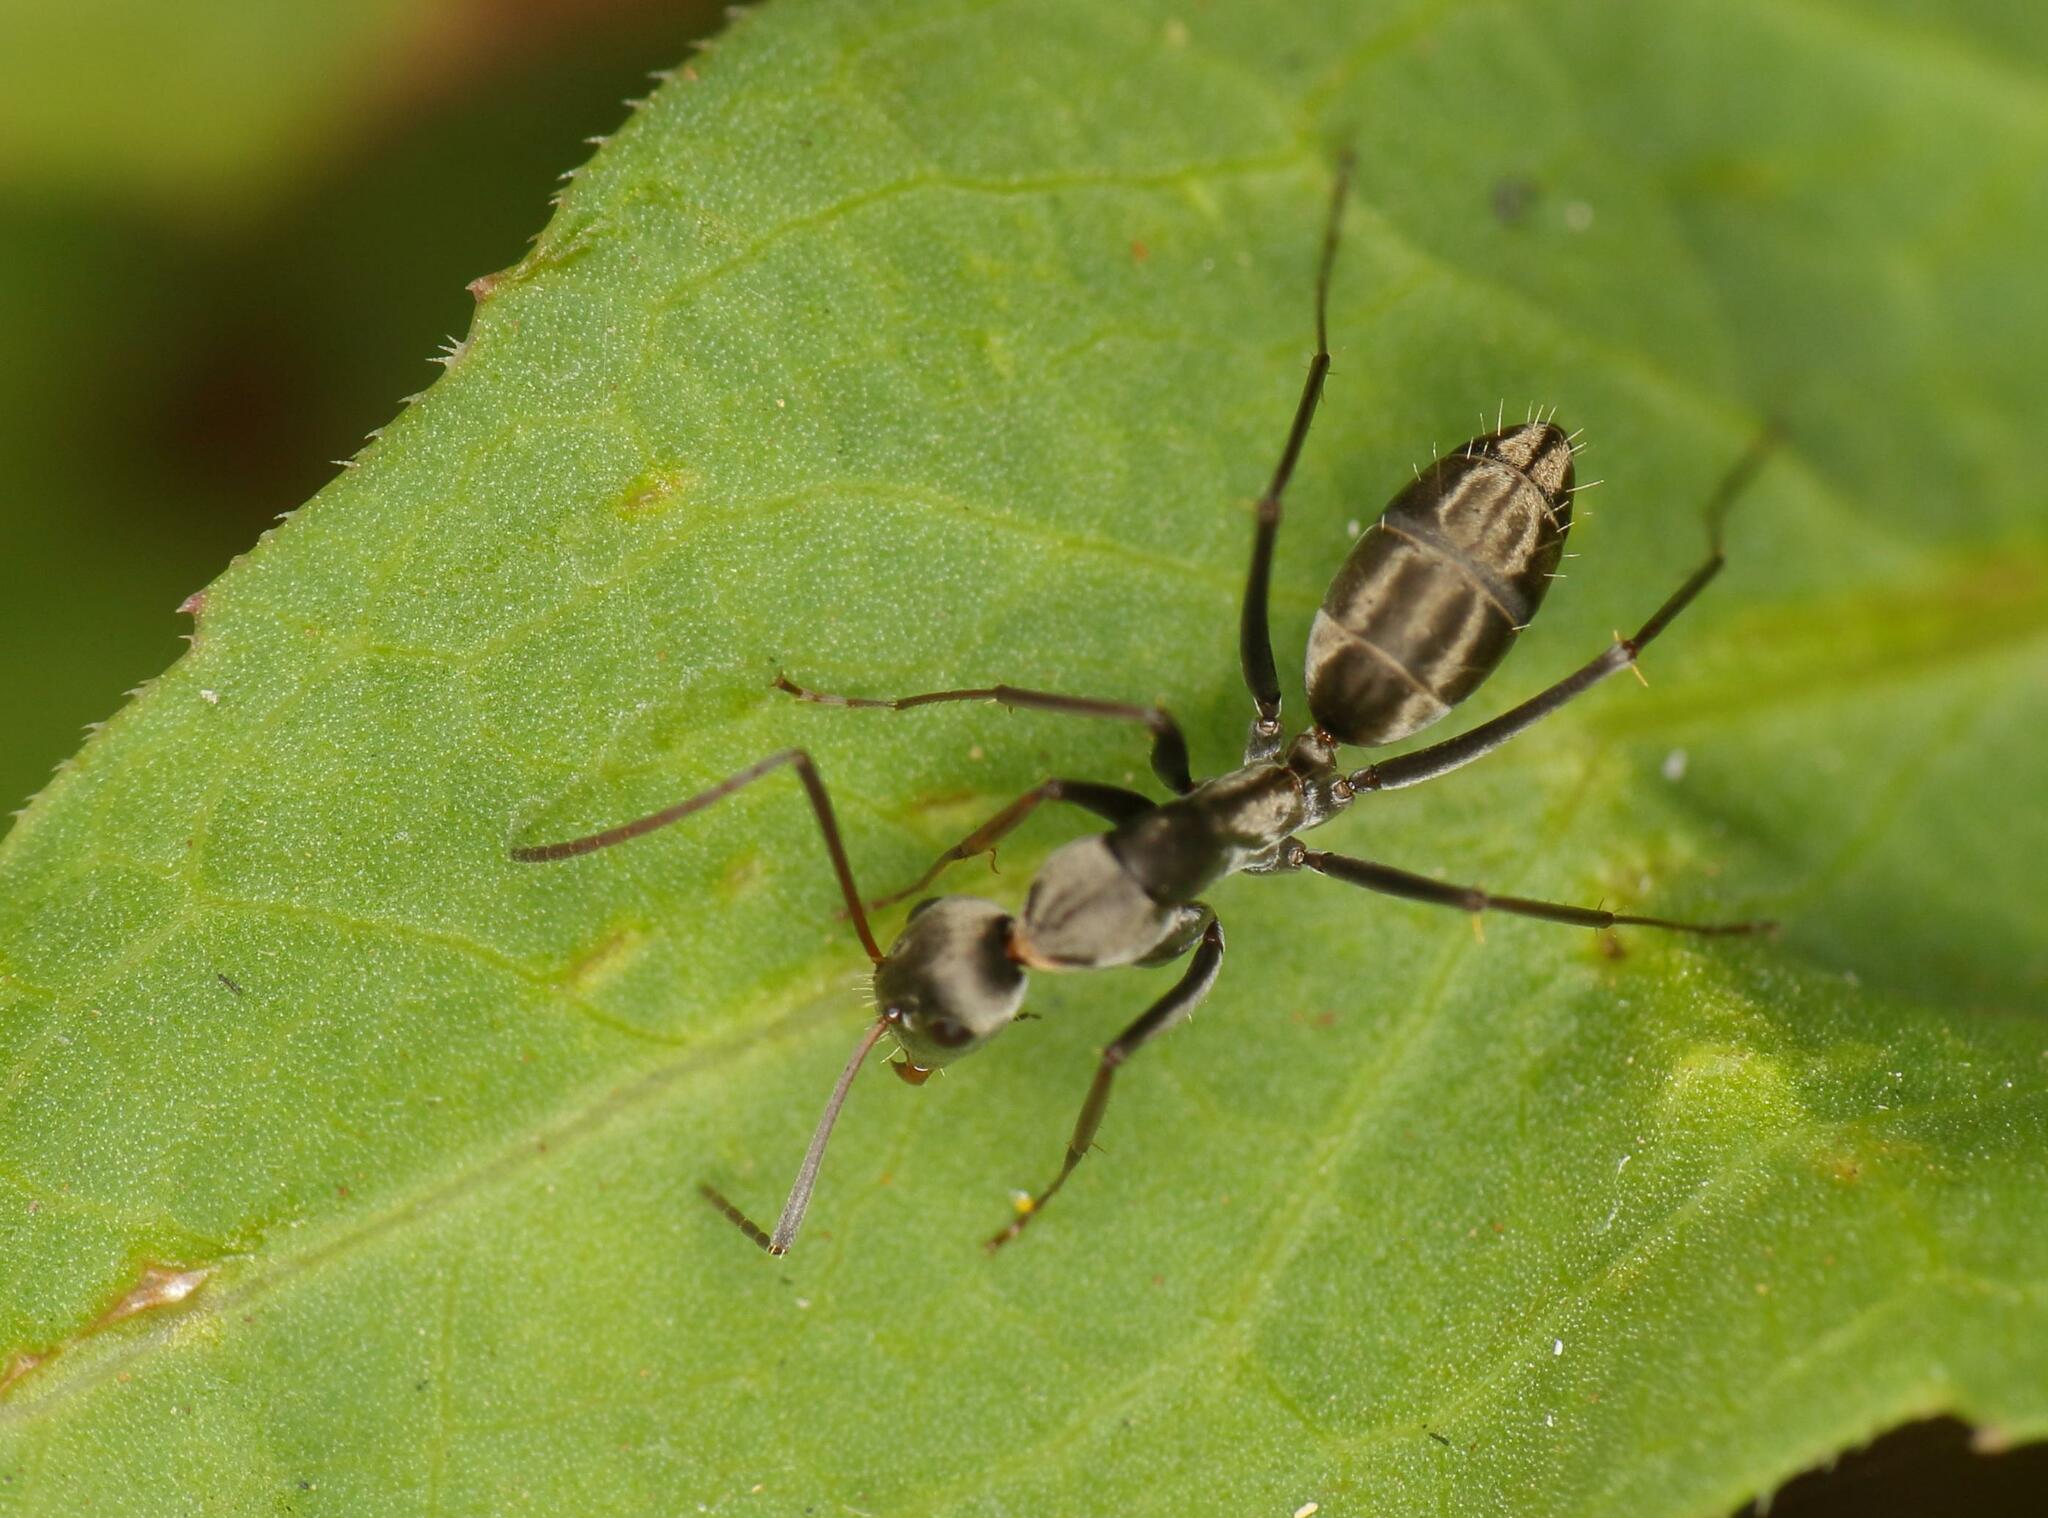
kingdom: Animalia
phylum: Arthropoda
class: Insecta
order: Hymenoptera
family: Formicidae
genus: Camponotus
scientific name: Camponotus vestitus
